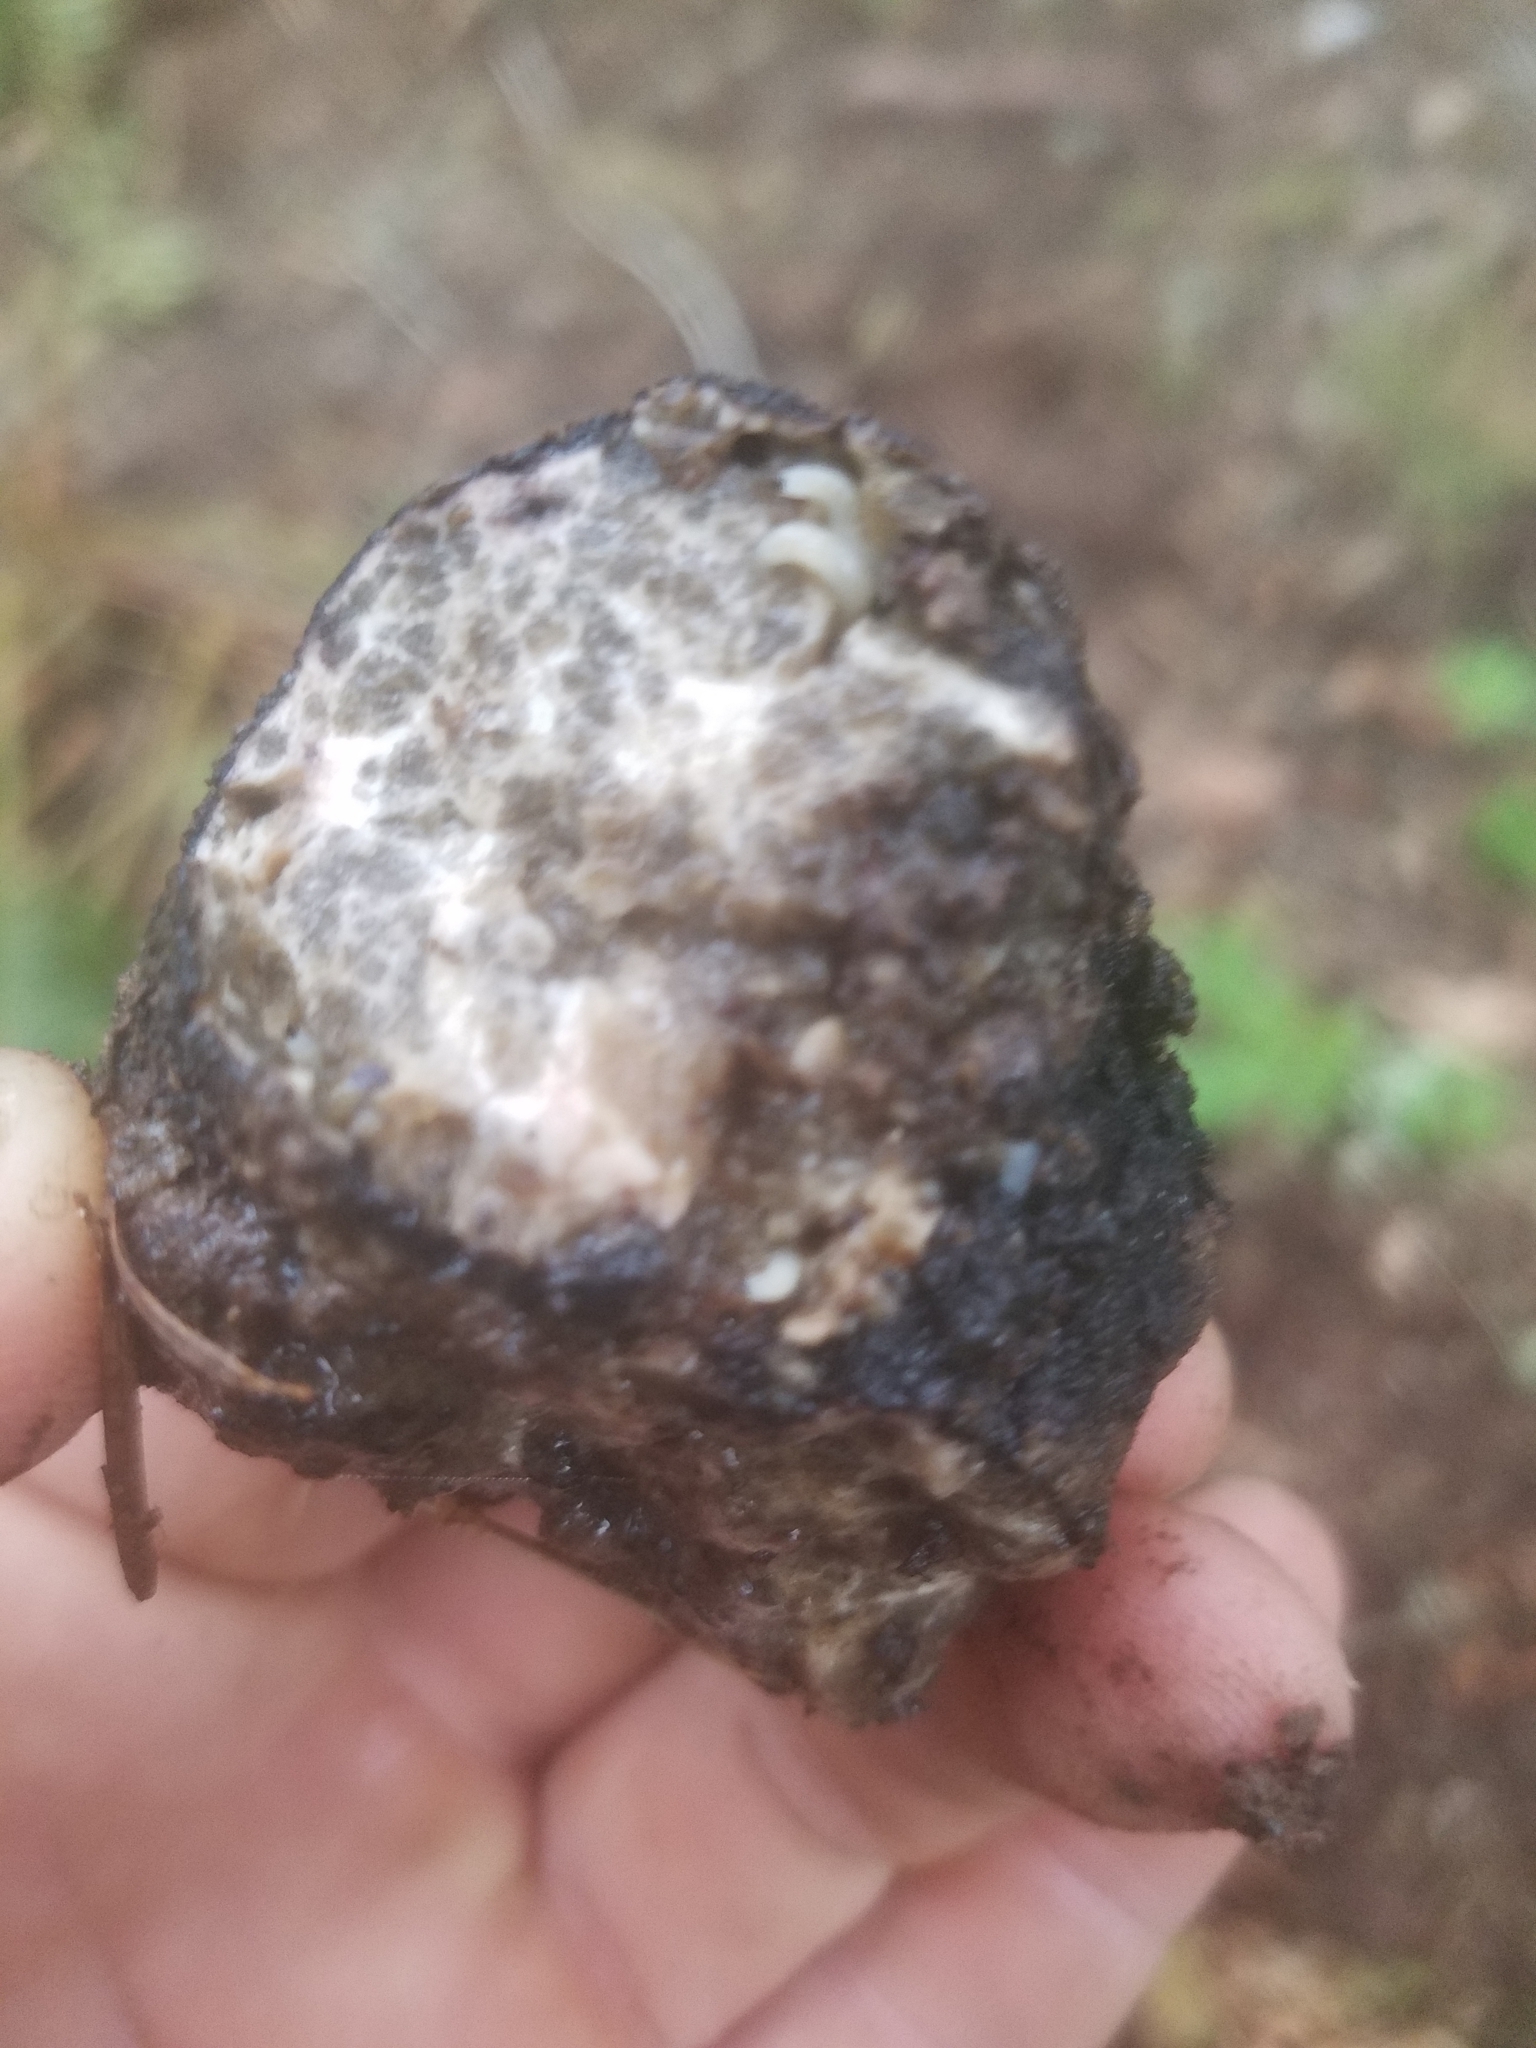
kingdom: Fungi
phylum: Ascomycota
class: Pezizomycetes
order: Pezizales
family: Morchellaceae
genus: Leucangium
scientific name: Leucangium carthusianum
